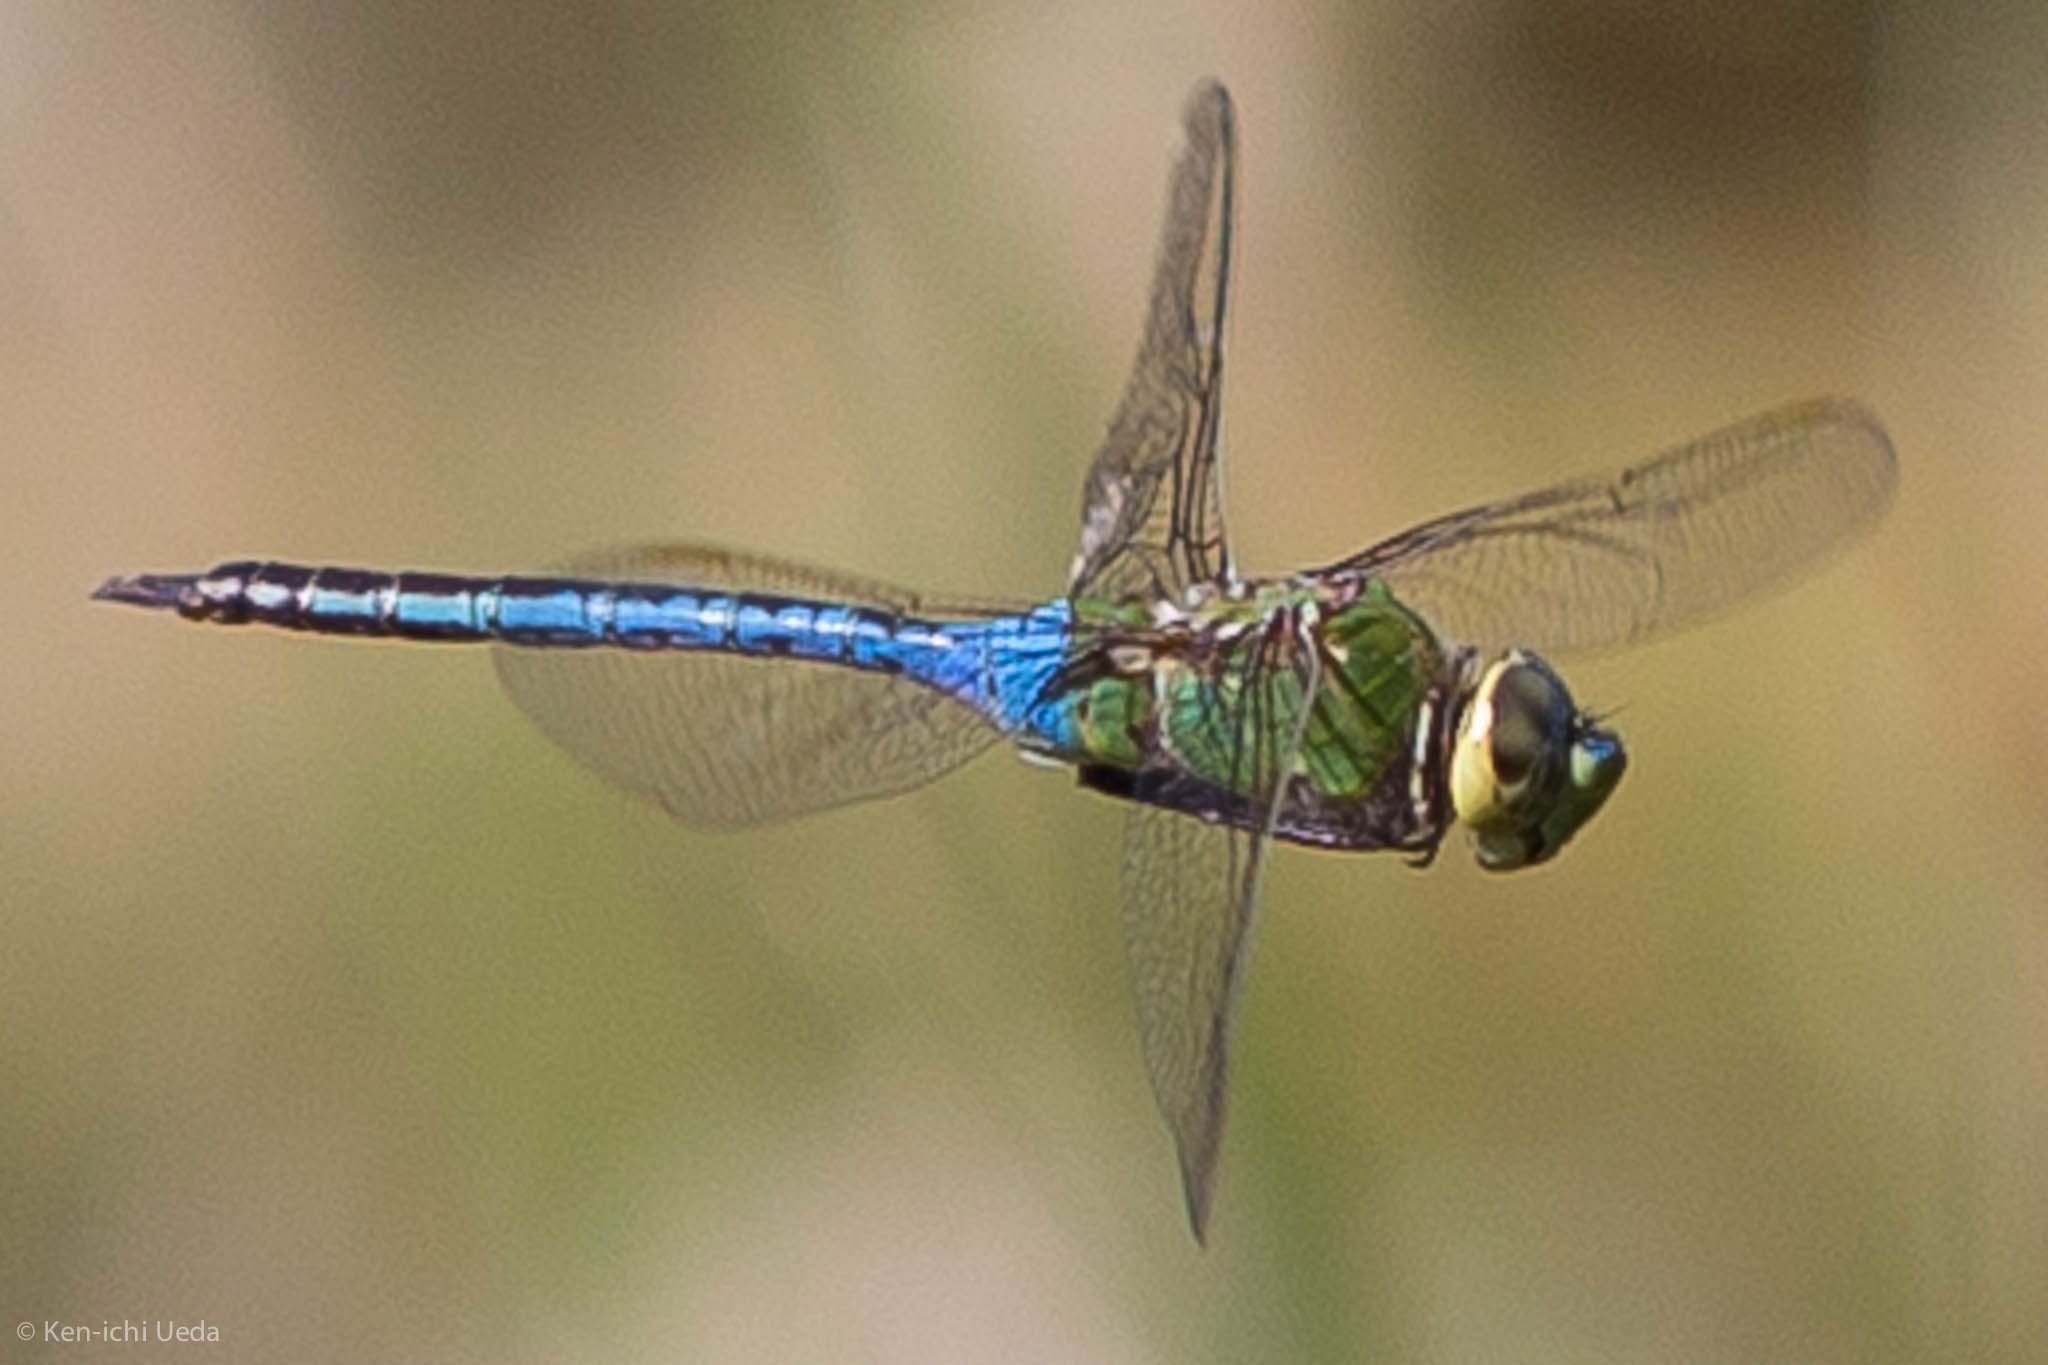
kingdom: Animalia
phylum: Arthropoda
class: Insecta
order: Odonata
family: Aeshnidae
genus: Anax
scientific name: Anax junius
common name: Common green darner
